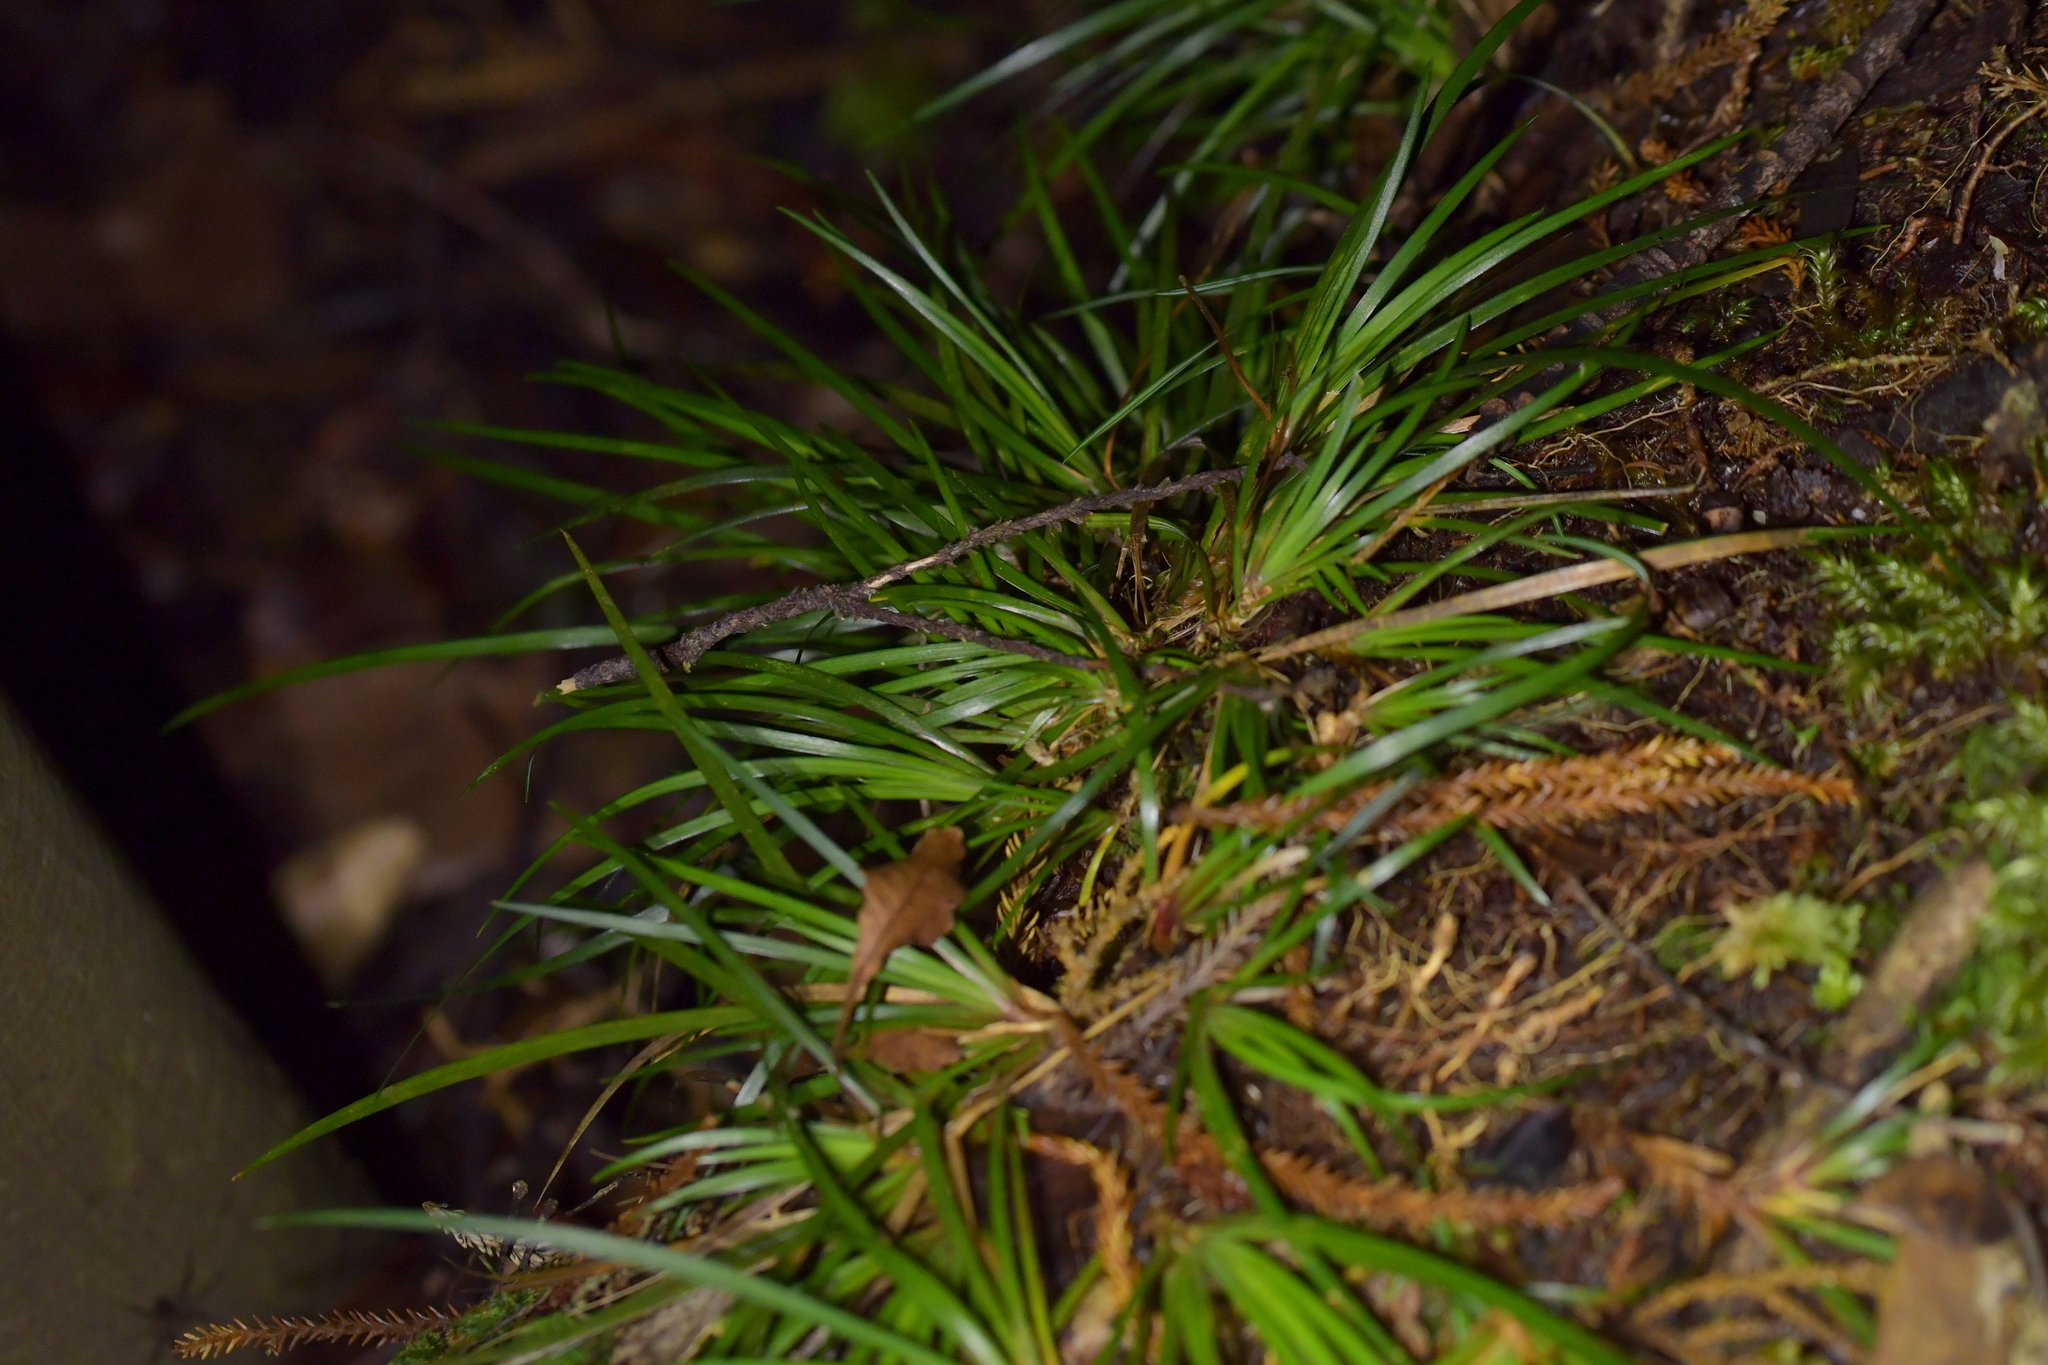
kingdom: Plantae
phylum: Tracheophyta
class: Liliopsida
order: Asparagales
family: Iridaceae
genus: Libertia
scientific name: Libertia micrantha
